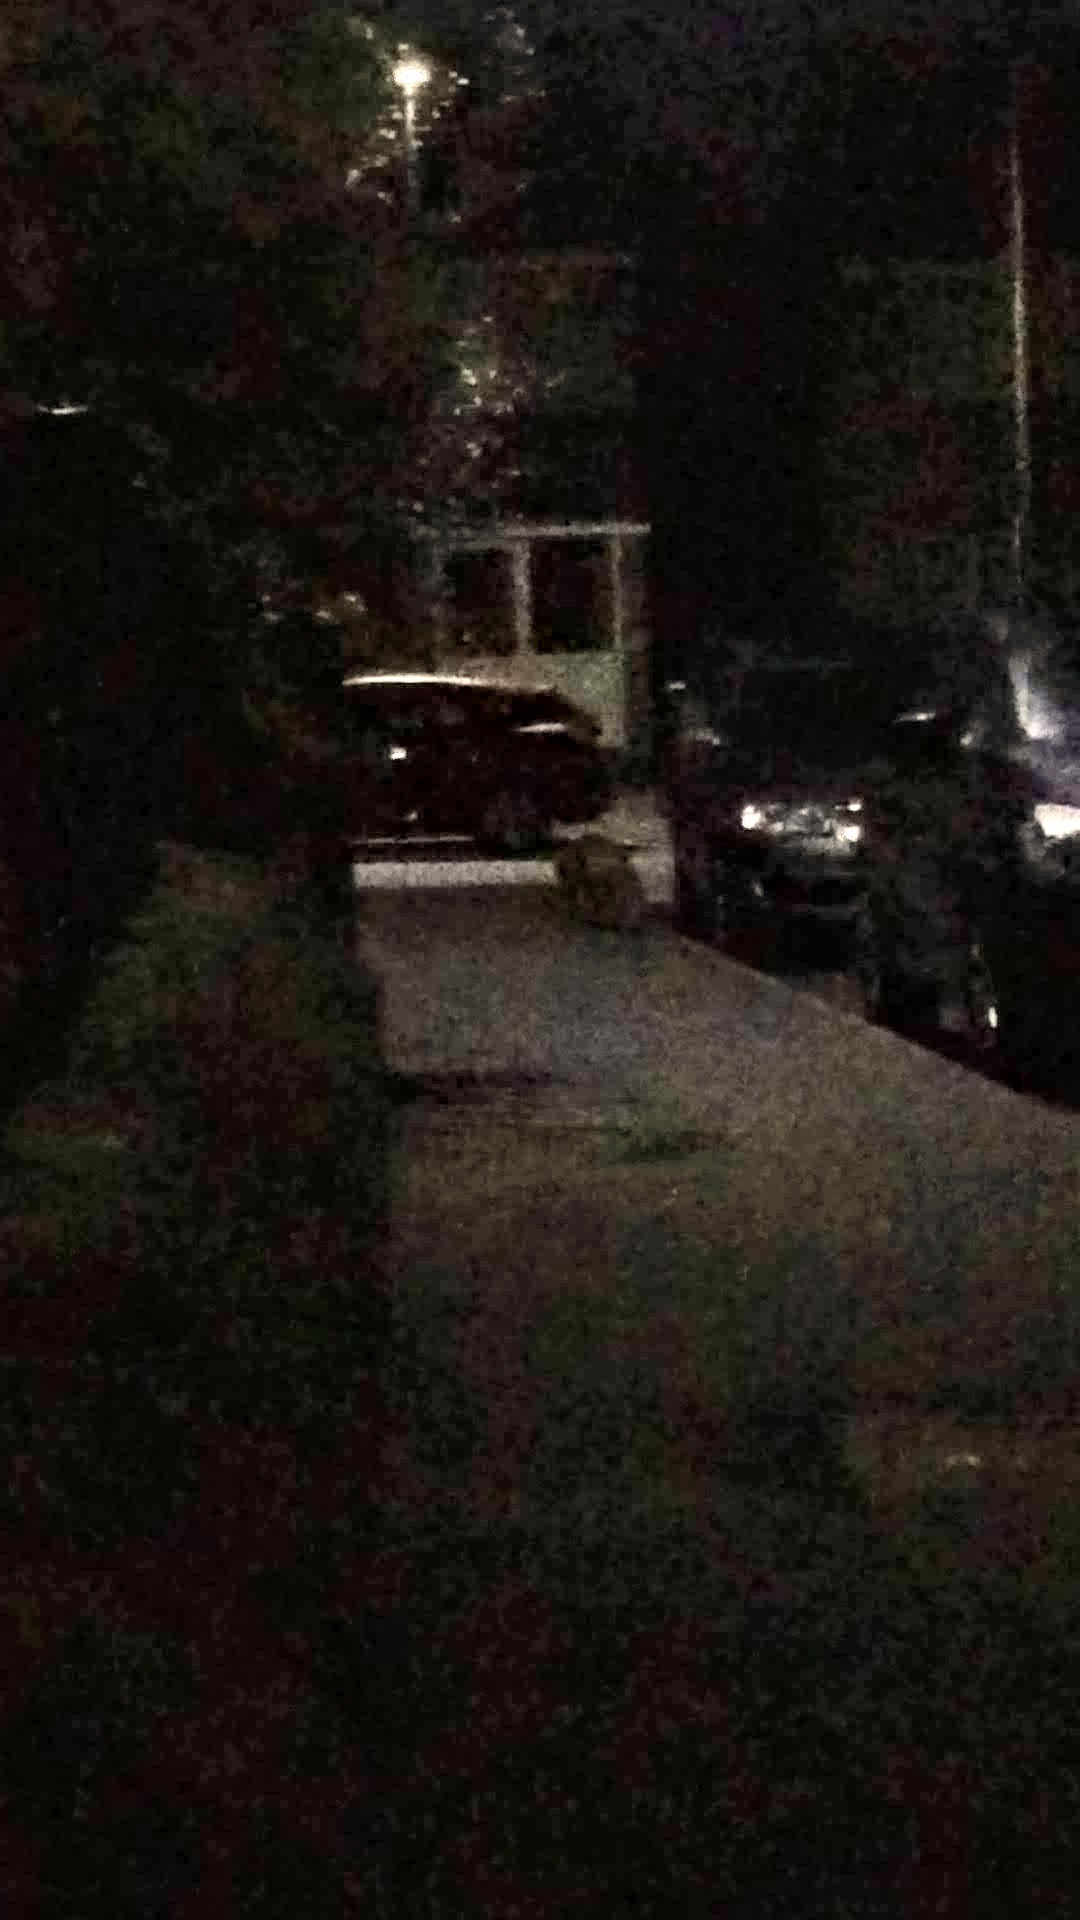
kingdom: Animalia
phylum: Chordata
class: Mammalia
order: Carnivora
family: Canidae
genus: Vulpes
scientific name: Vulpes vulpes
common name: Red fox
